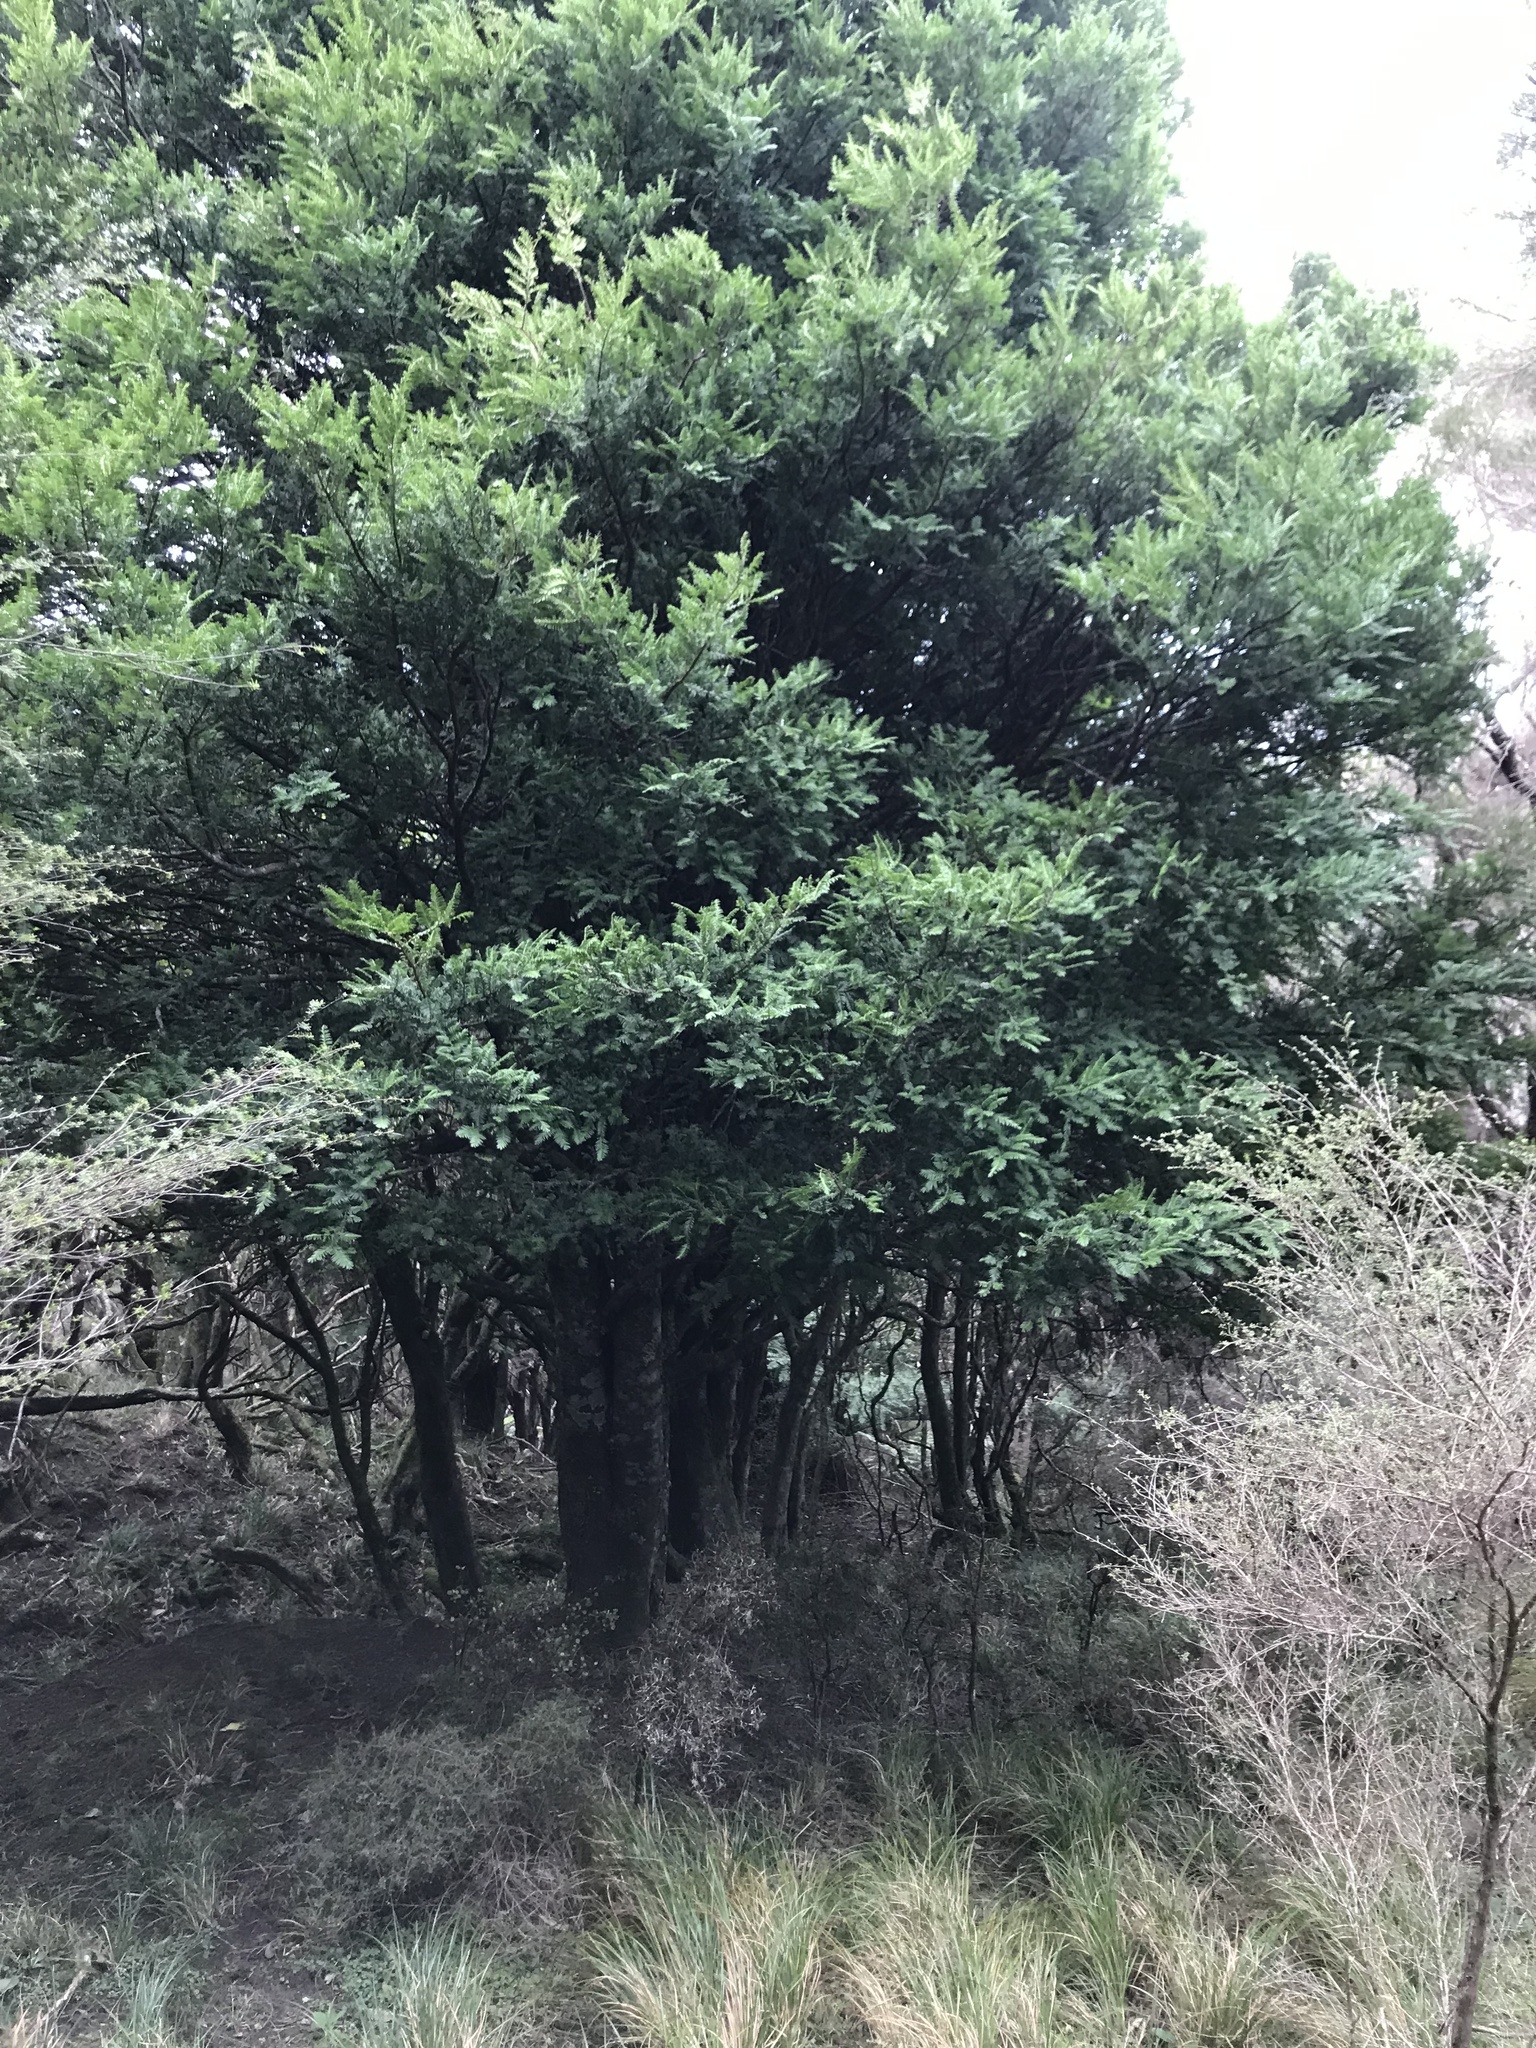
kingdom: Plantae
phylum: Tracheophyta
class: Pinopsida
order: Pinales
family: Podocarpaceae
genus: Prumnopitys
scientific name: Prumnopitys ferruginea
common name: Brown pine
